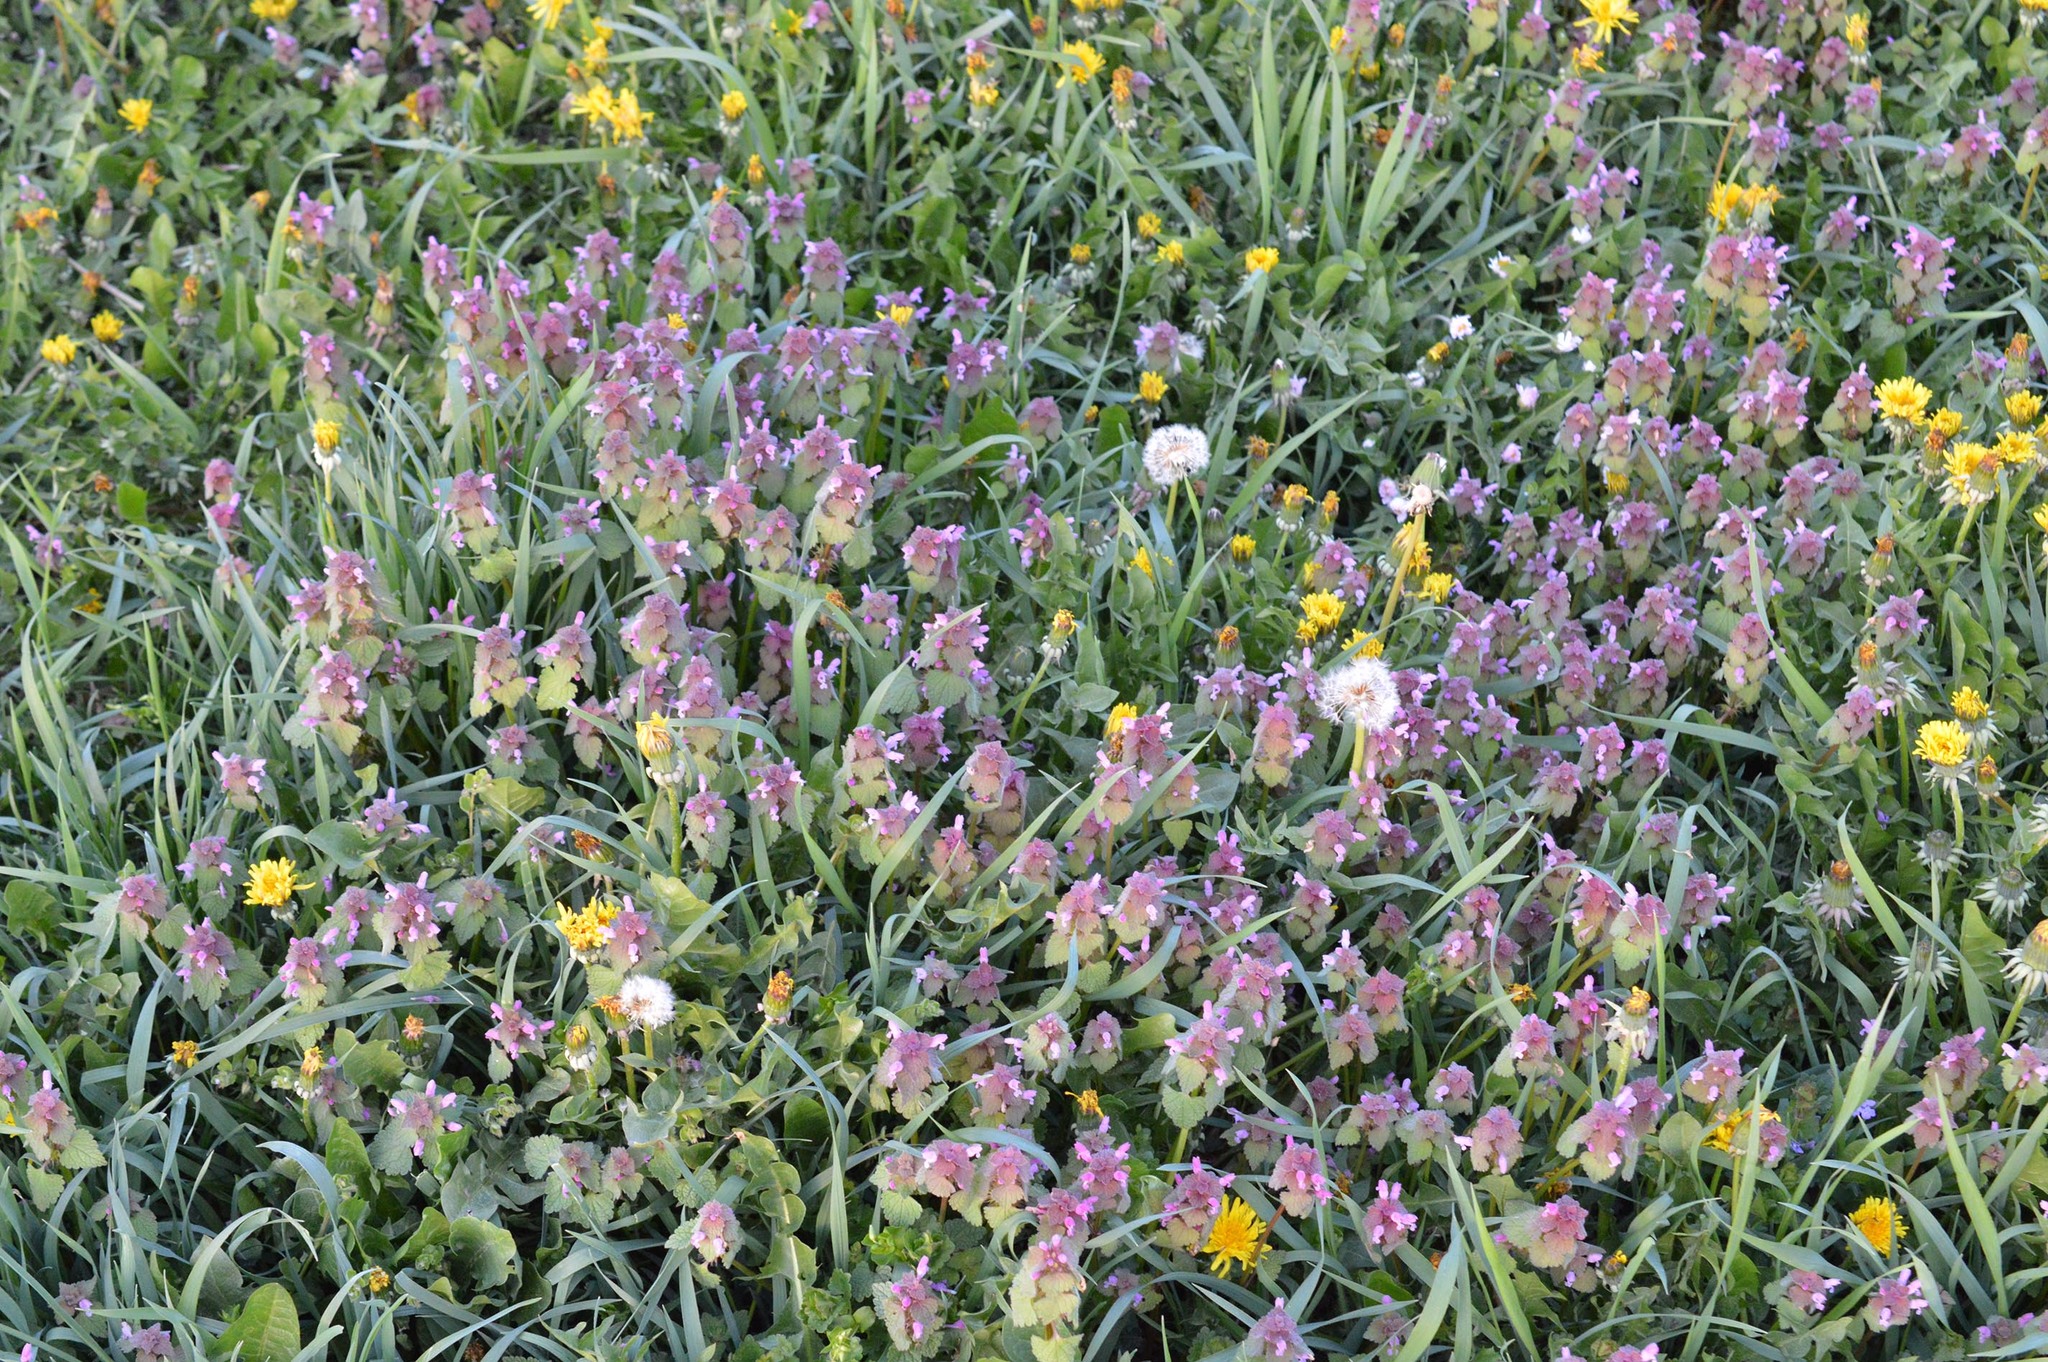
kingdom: Plantae
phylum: Tracheophyta
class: Magnoliopsida
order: Lamiales
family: Lamiaceae
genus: Lamium
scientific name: Lamium purpureum
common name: Red dead-nettle
